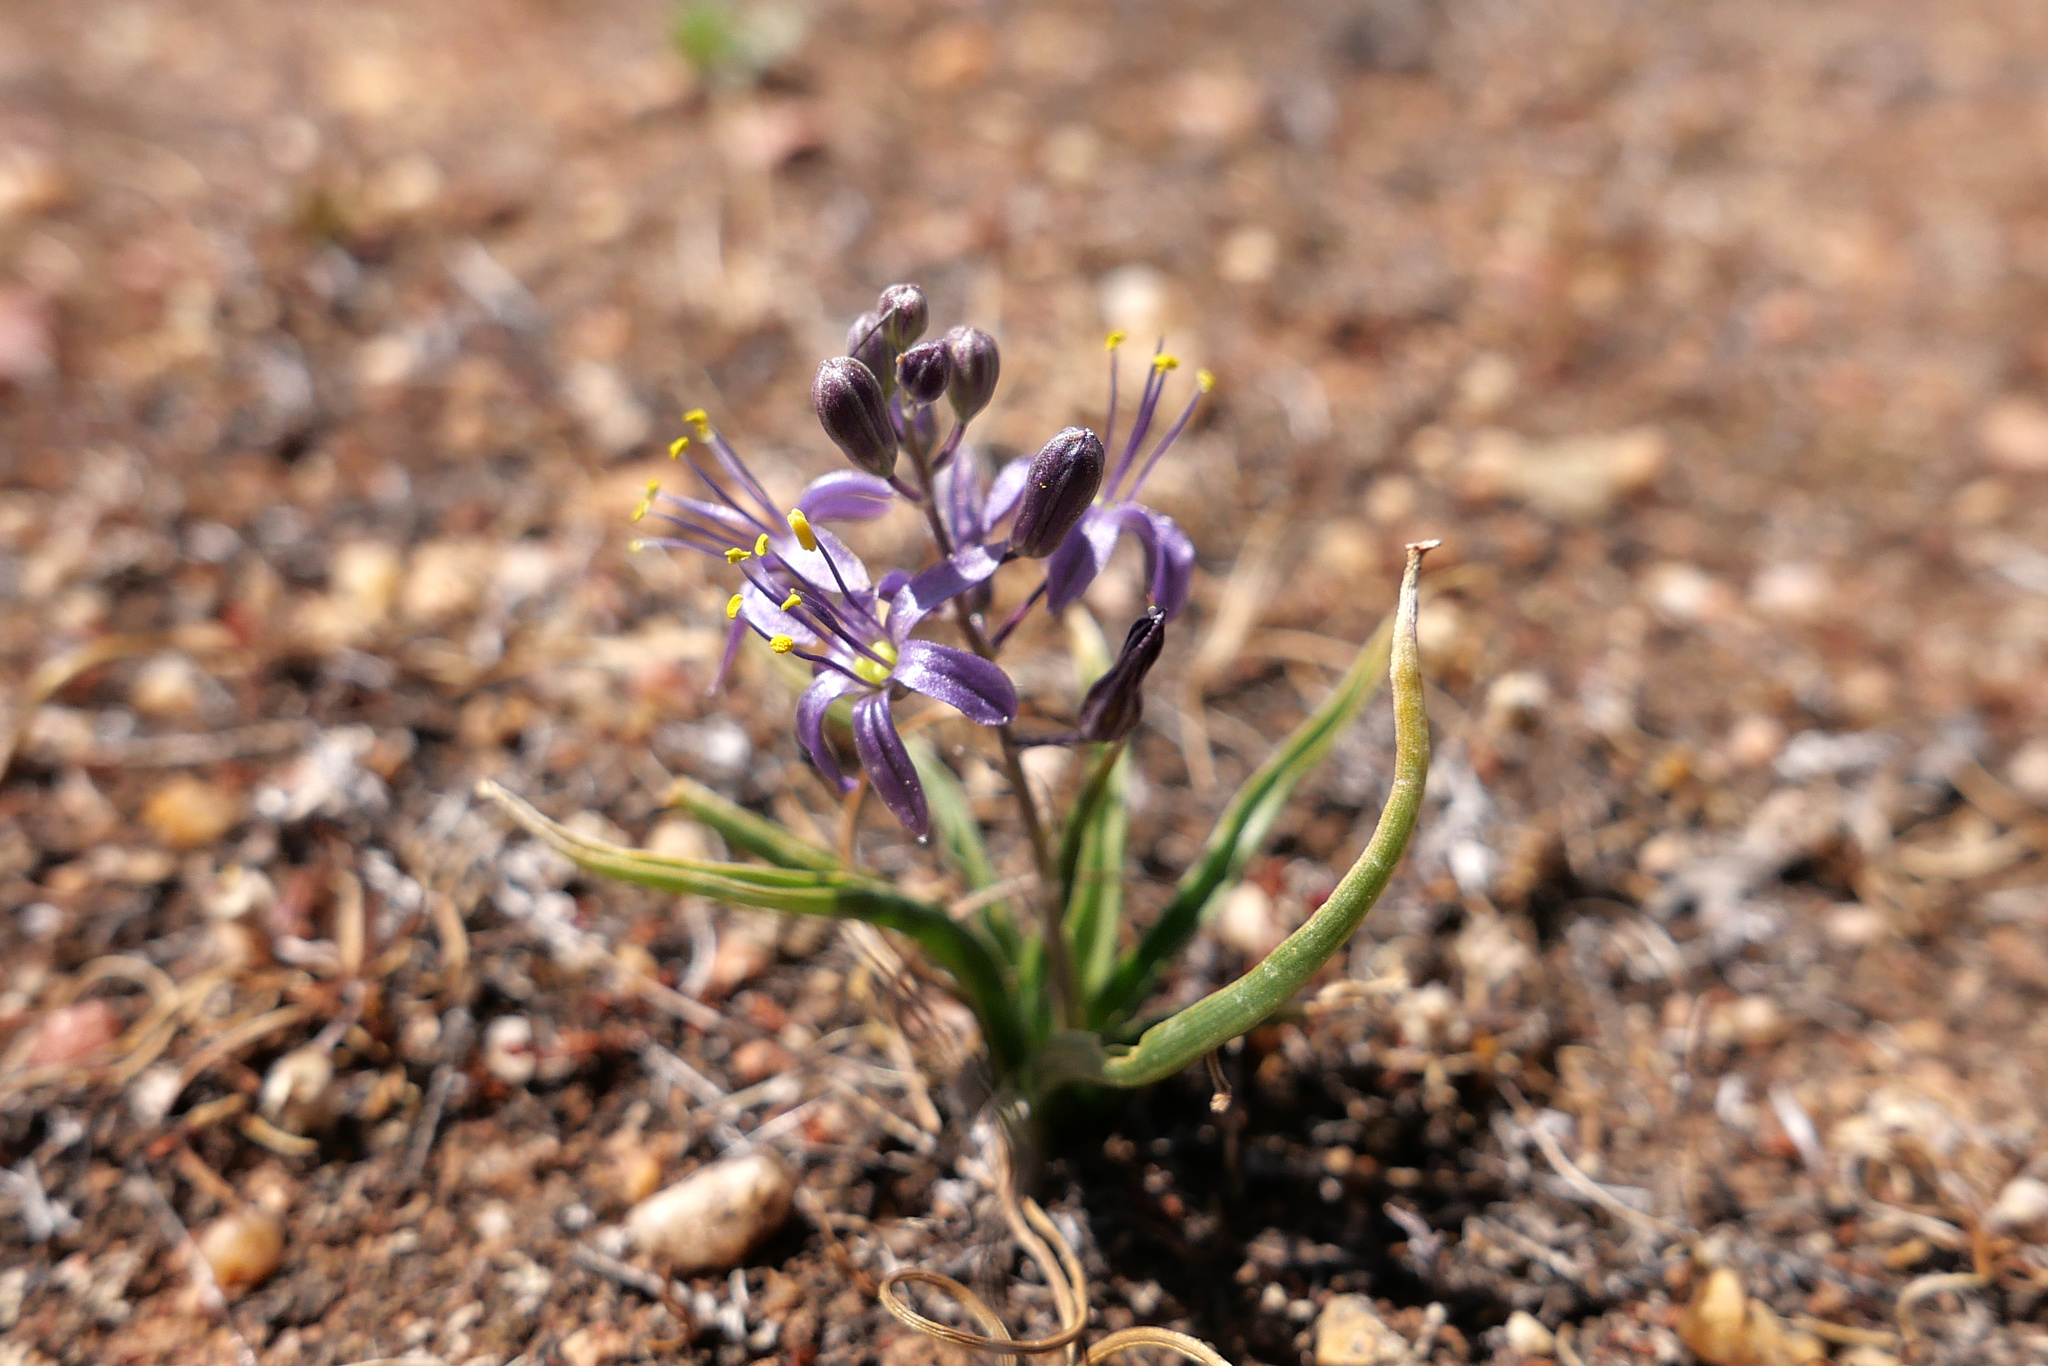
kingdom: Plantae
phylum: Tracheophyta
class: Liliopsida
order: Asparagales
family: Asparagaceae
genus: Hooveria
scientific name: Hooveria purpurea
